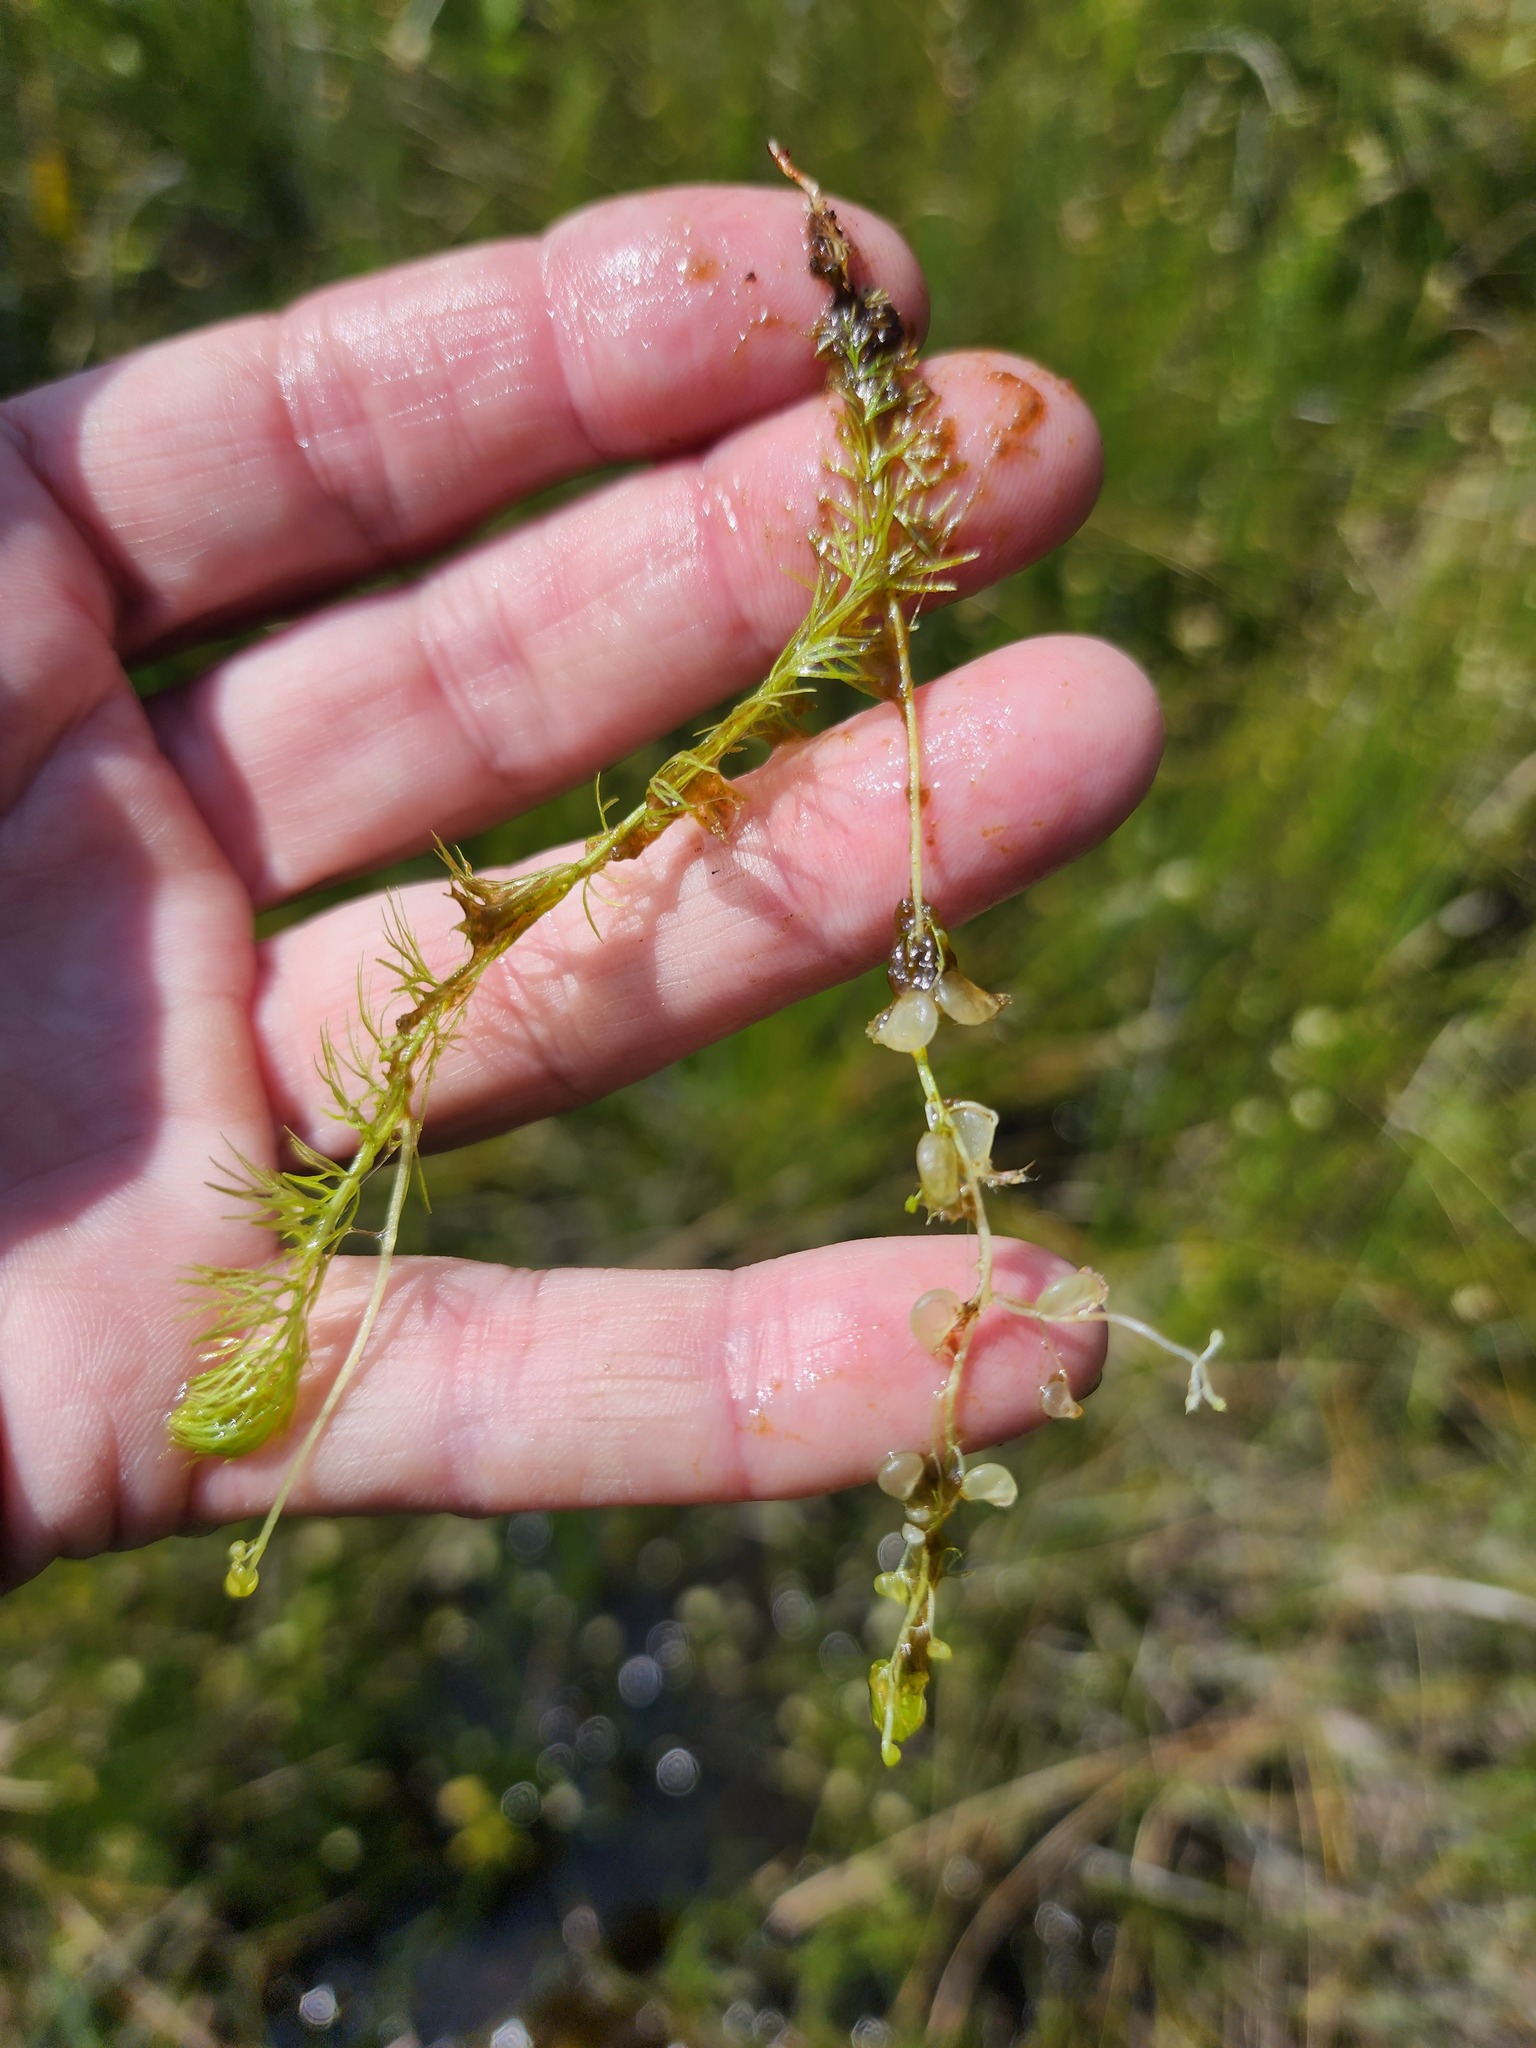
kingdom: Plantae
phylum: Tracheophyta
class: Magnoliopsida
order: Lamiales
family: Lentibulariaceae
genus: Utricularia
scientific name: Utricularia intermedia
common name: Intermediate bladderwort
